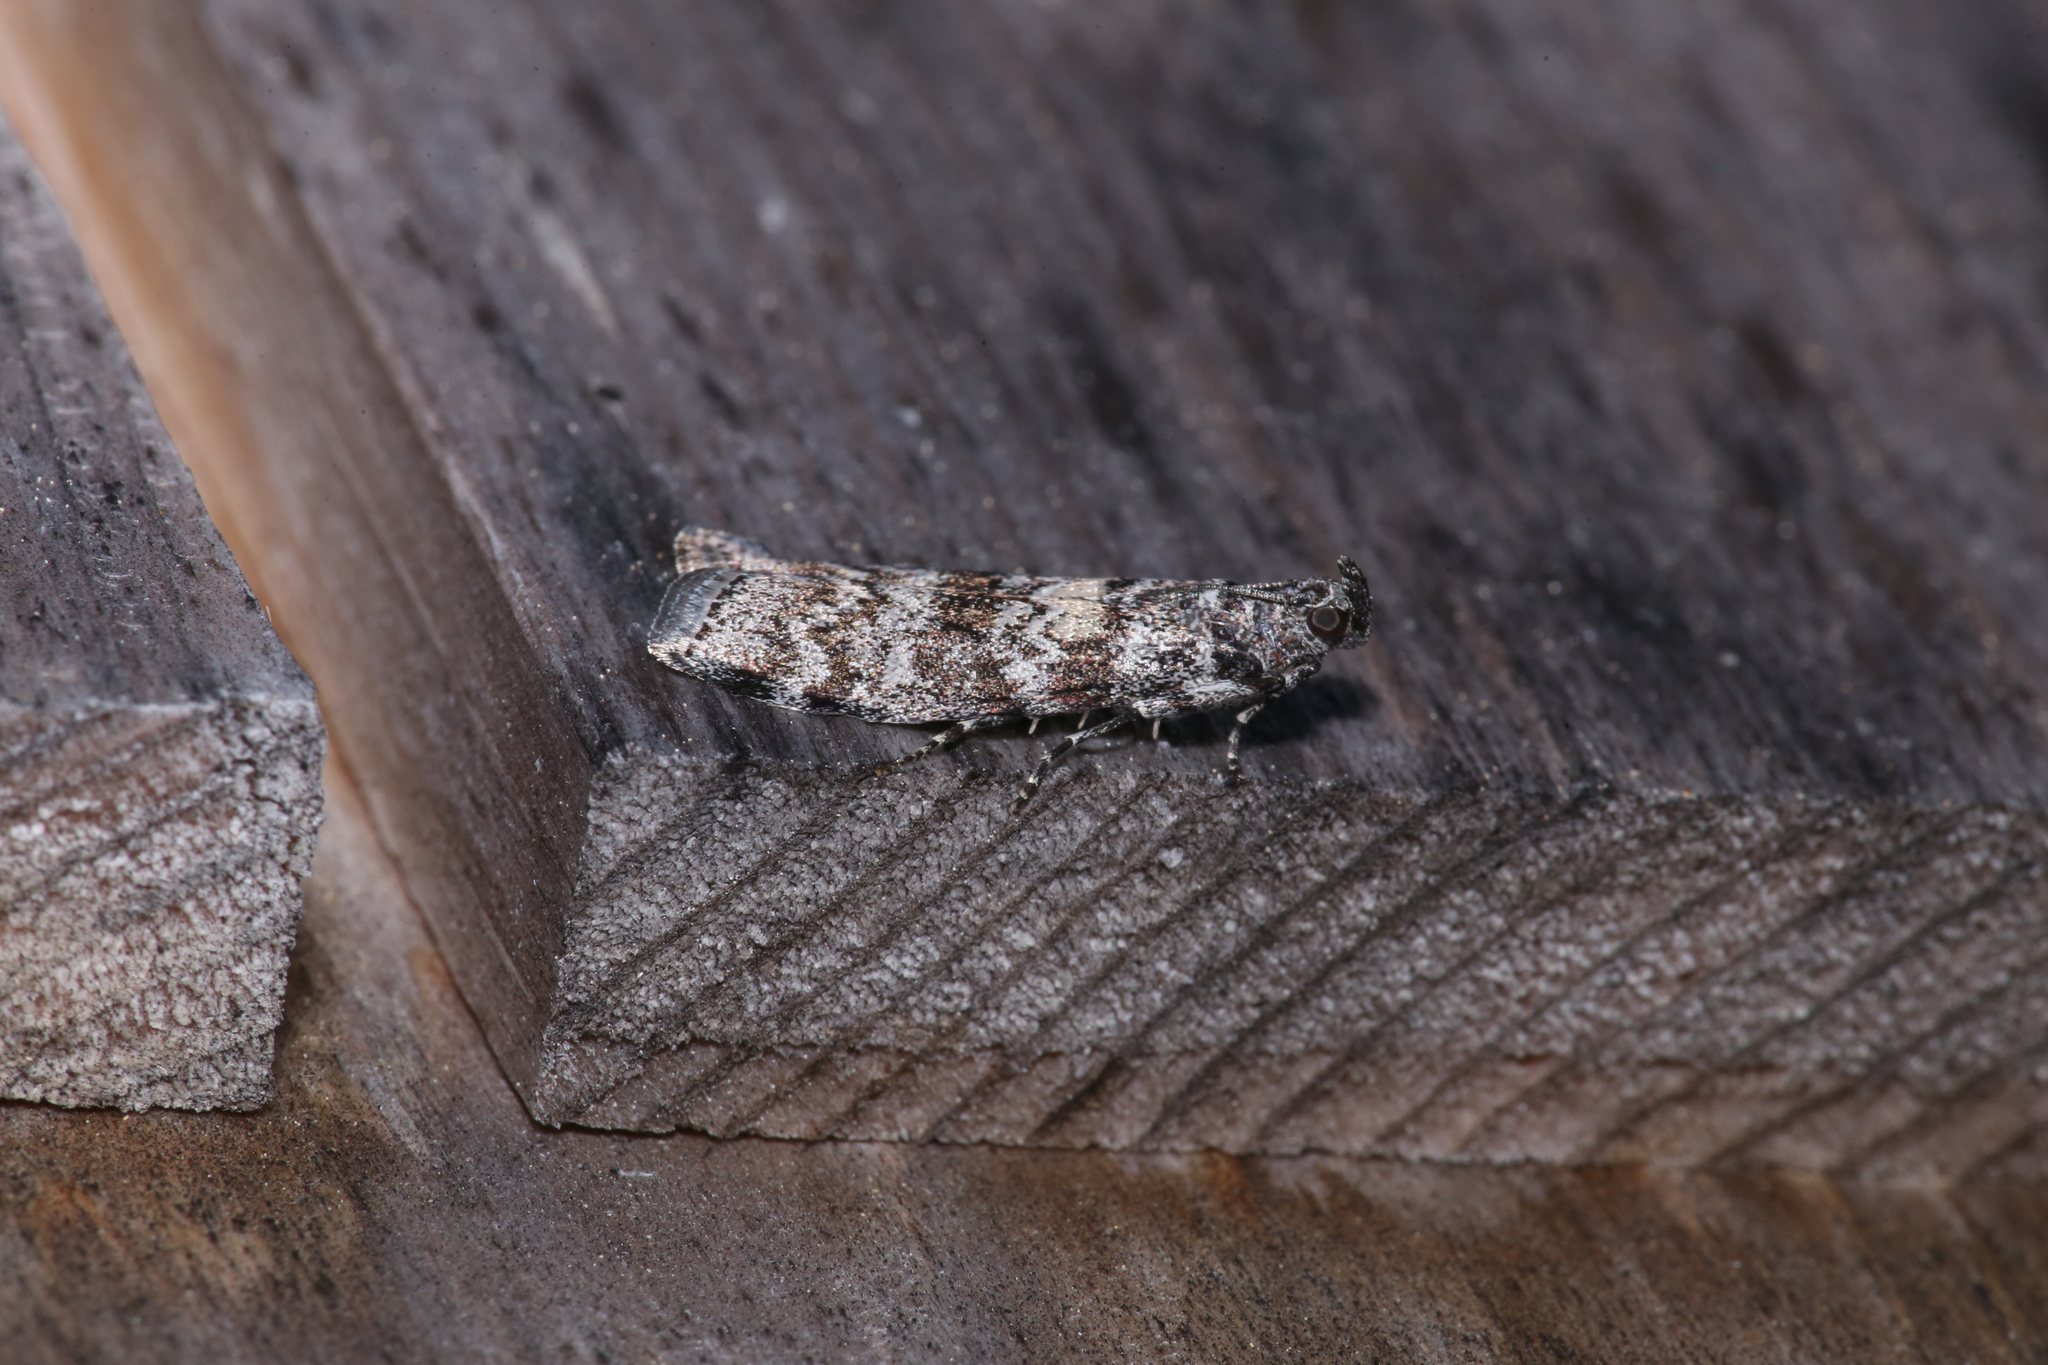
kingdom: Animalia
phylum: Arthropoda
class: Insecta
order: Lepidoptera
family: Pyralidae
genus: Dioryctria
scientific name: Dioryctria reniculelloides
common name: Spruce coneworm moth
